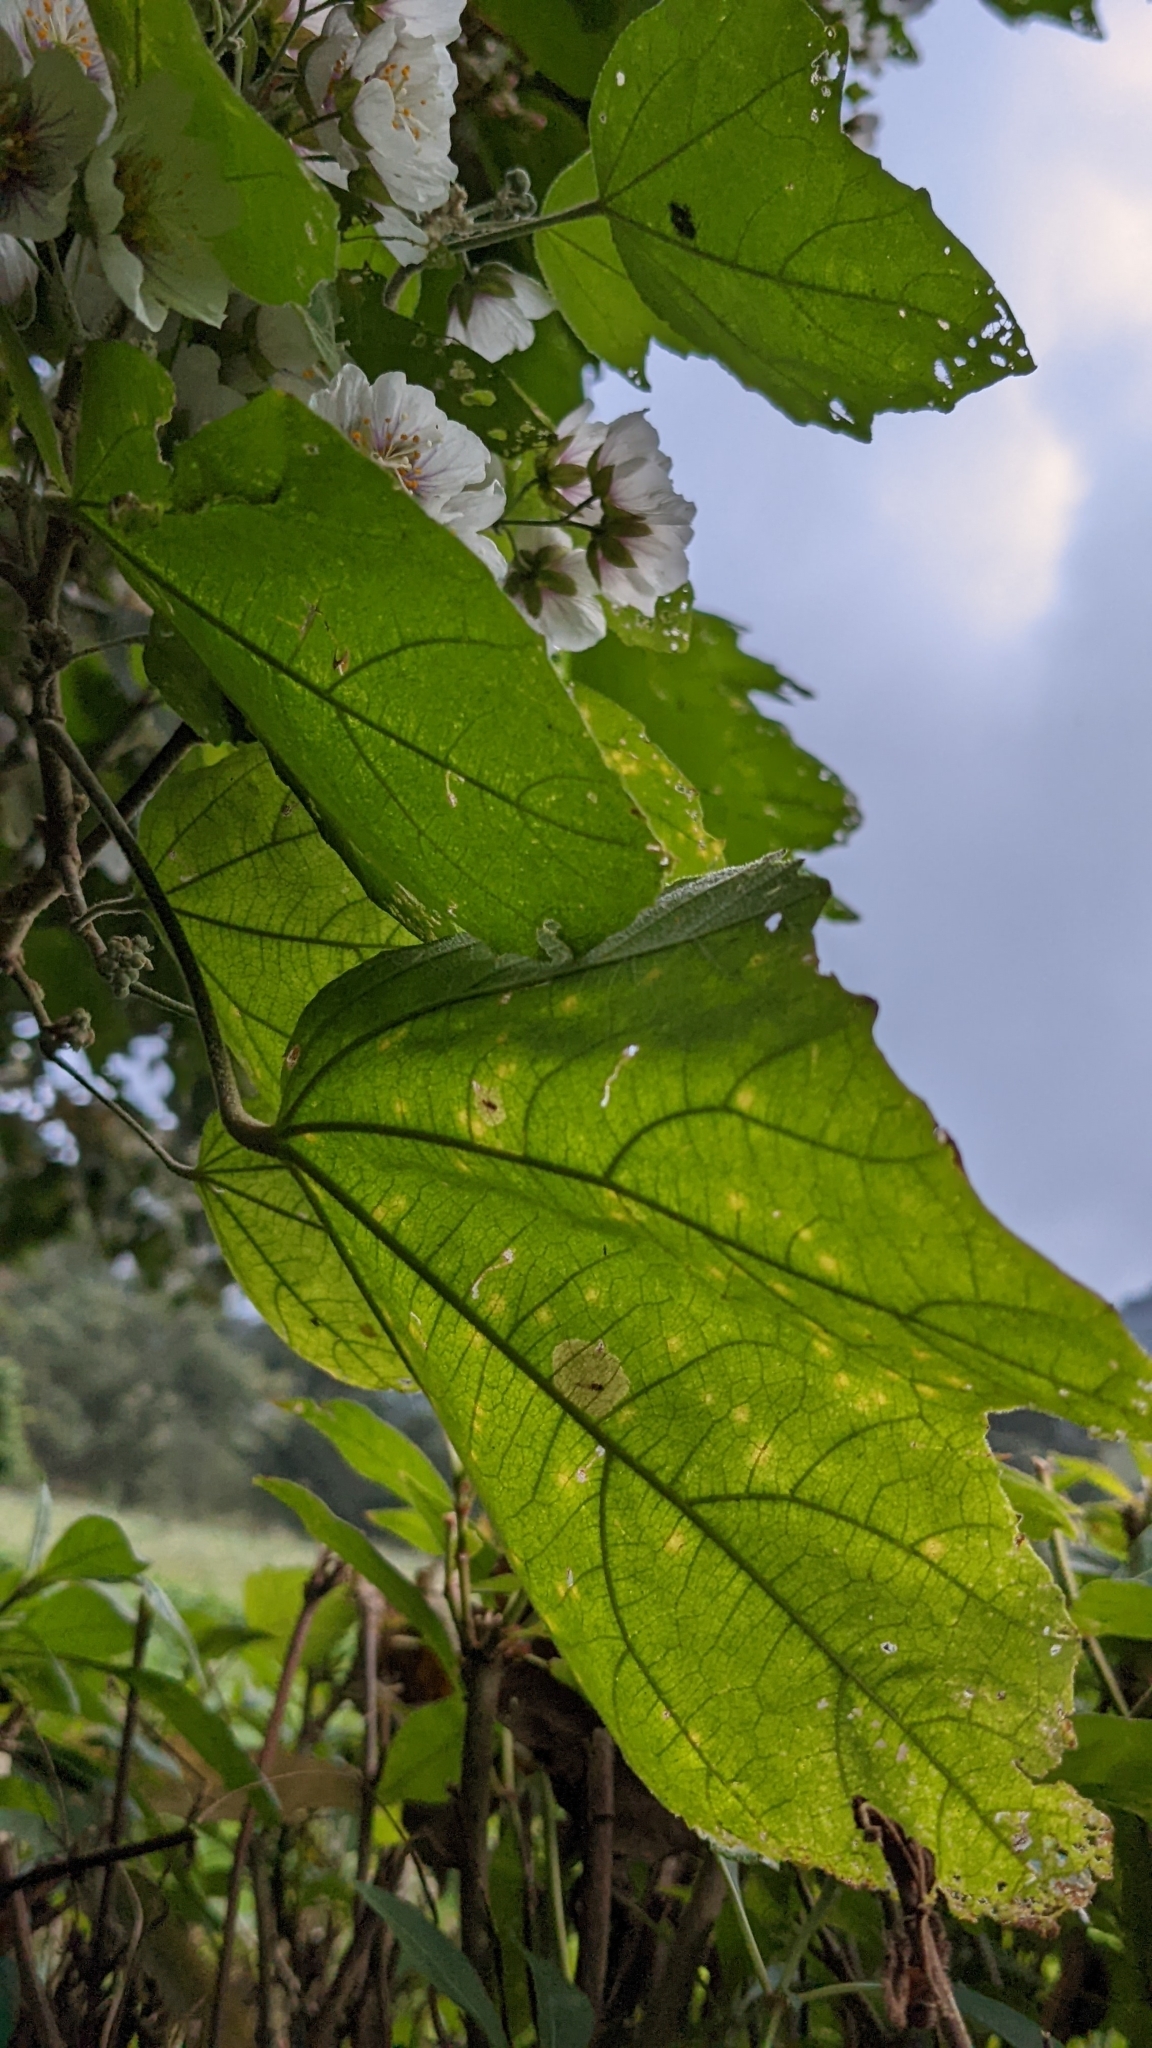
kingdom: Plantae
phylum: Tracheophyta
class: Magnoliopsida
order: Malvales
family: Malvaceae
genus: Robinsonella
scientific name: Robinsonella lindeniana
